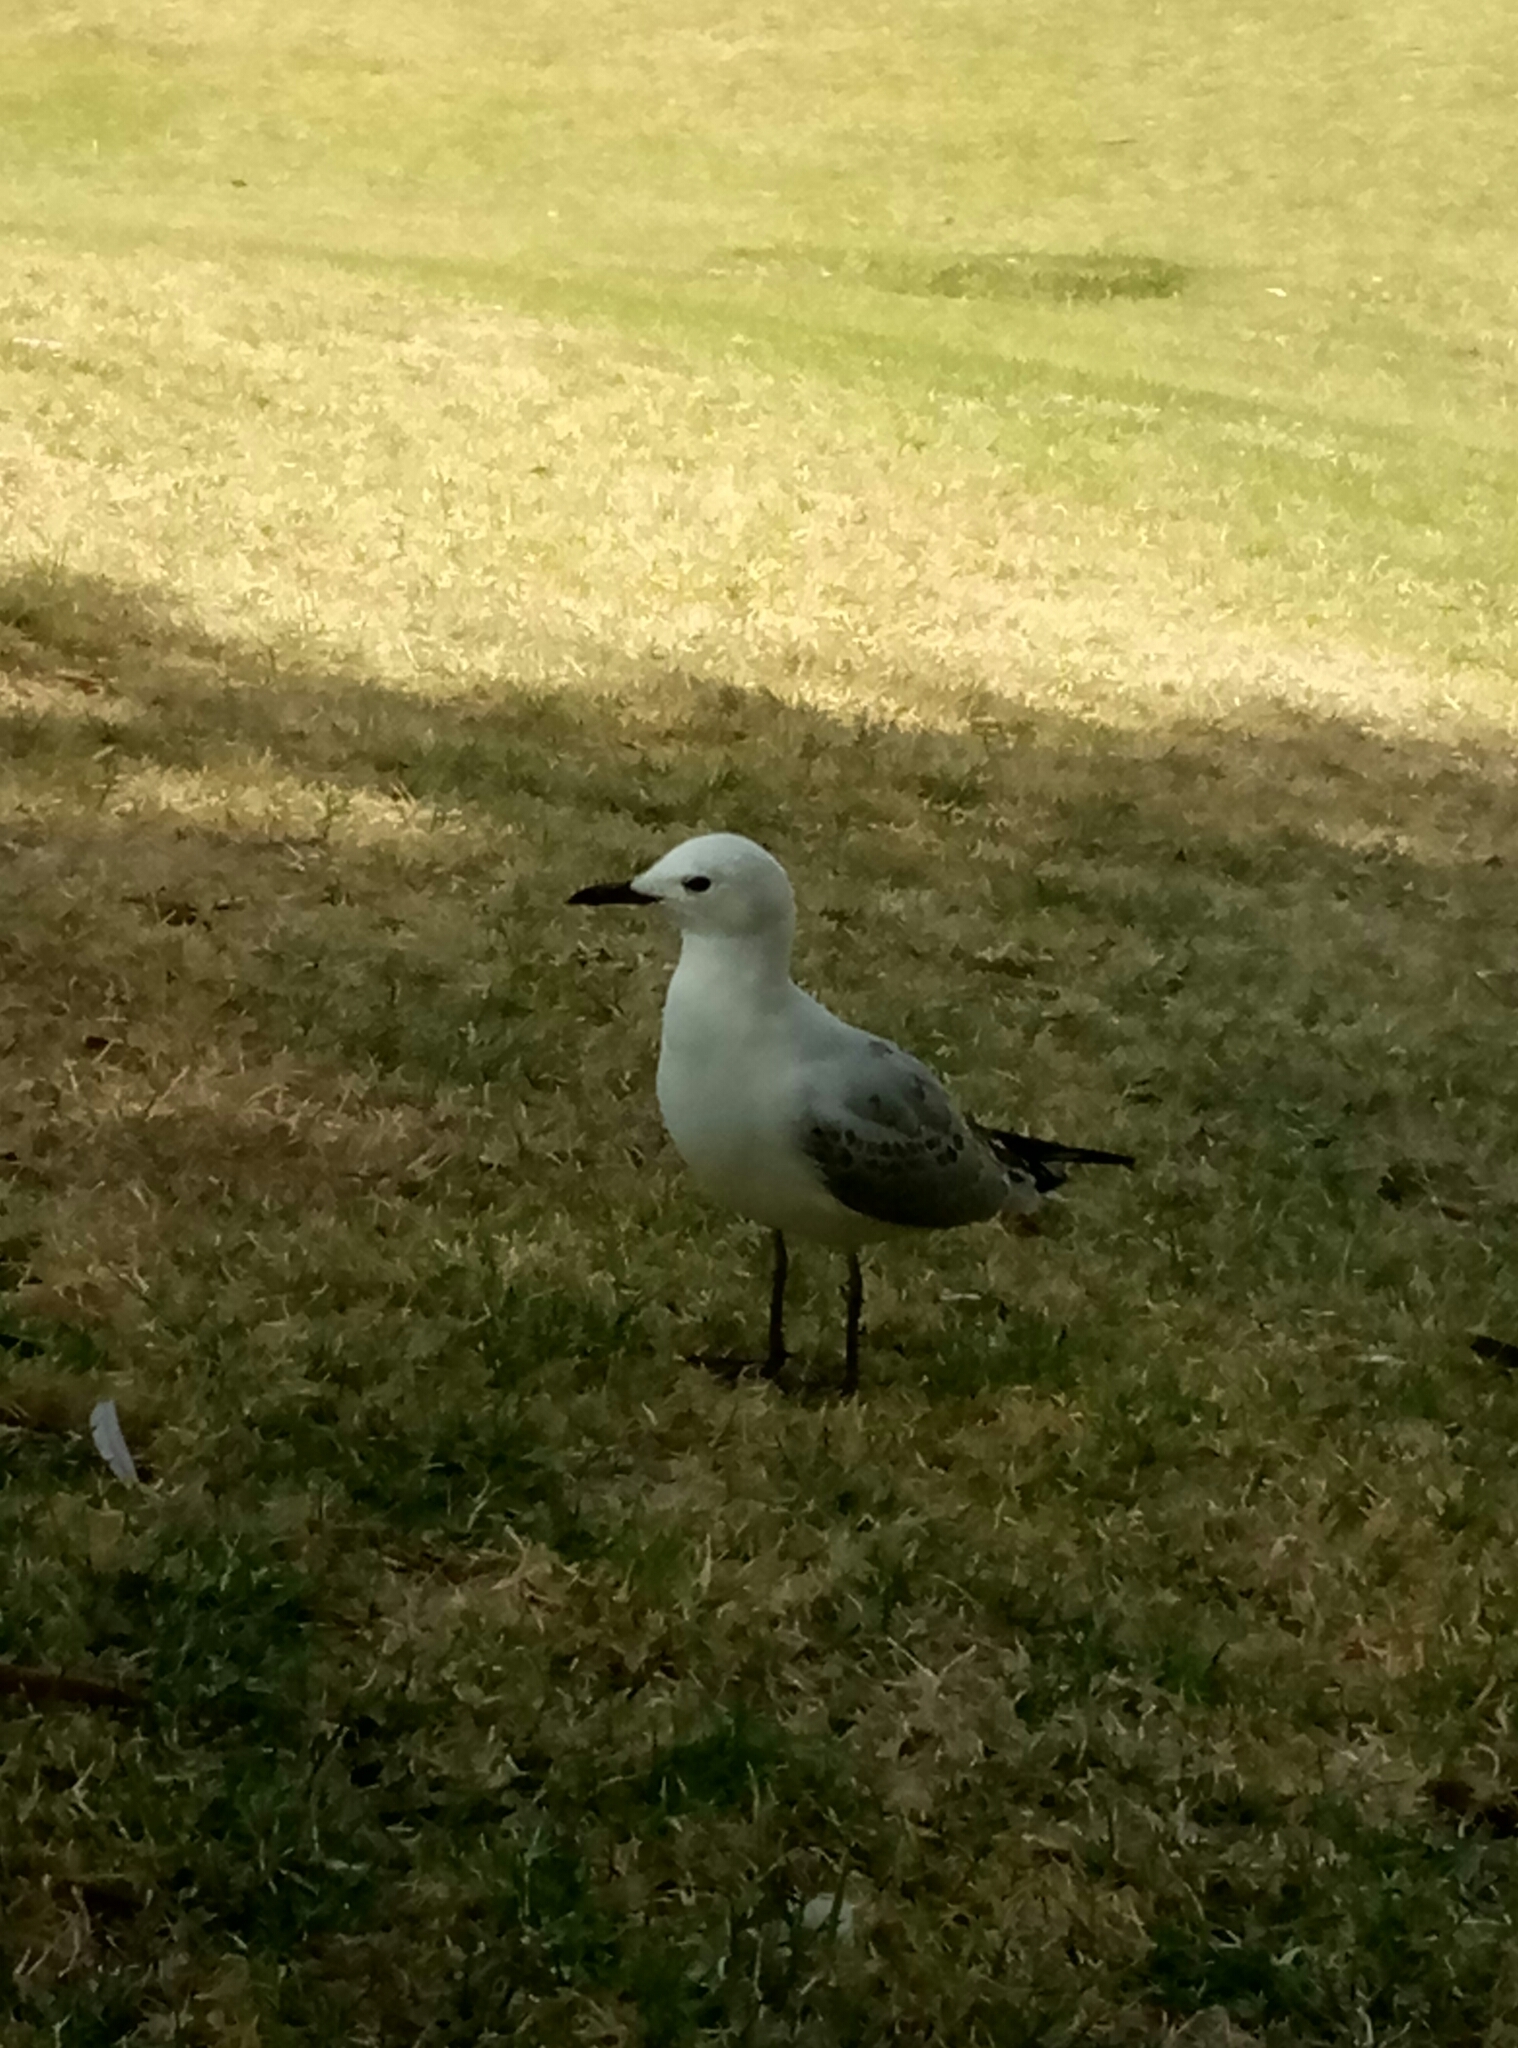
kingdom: Animalia
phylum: Chordata
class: Aves
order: Charadriiformes
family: Laridae
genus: Chroicocephalus
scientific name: Chroicocephalus novaehollandiae
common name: Silver gull
